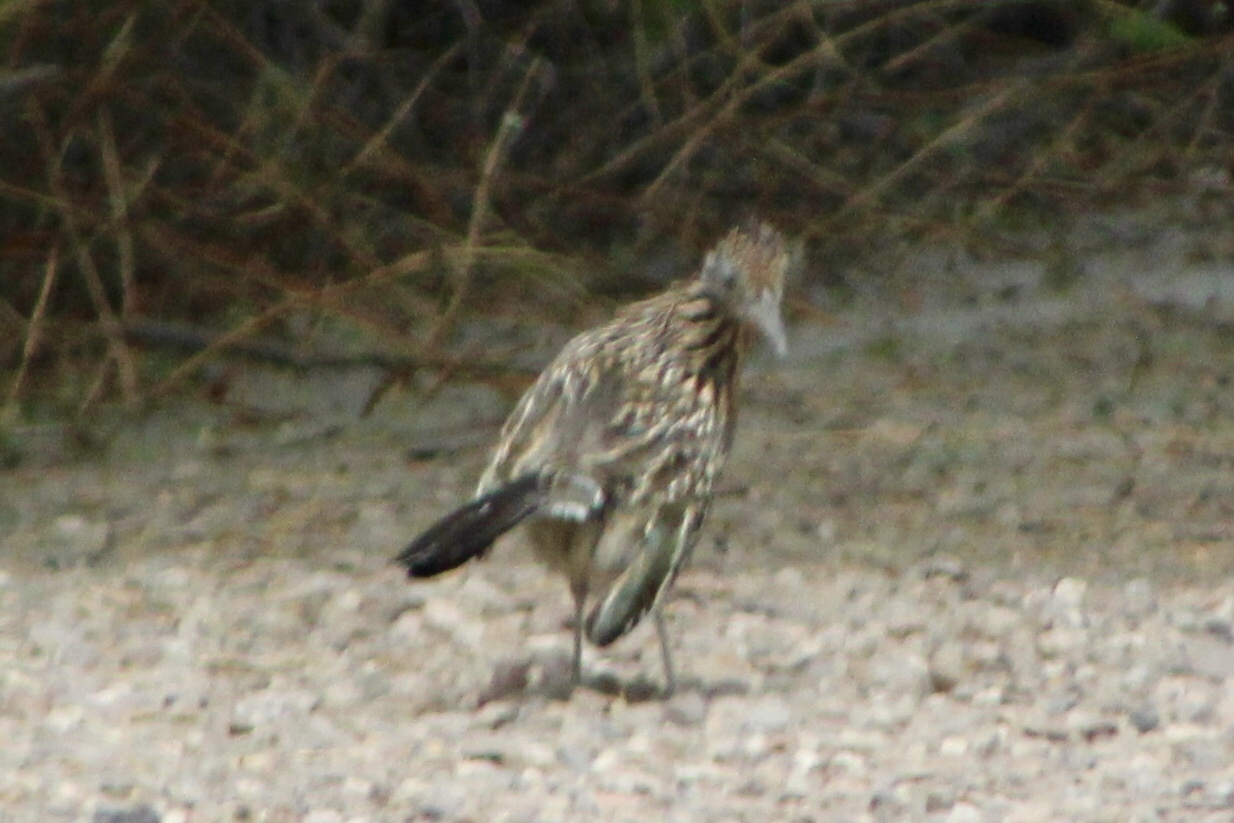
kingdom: Animalia
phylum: Chordata
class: Aves
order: Cuculiformes
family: Cuculidae
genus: Geococcyx
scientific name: Geococcyx californianus
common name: Greater roadrunner
